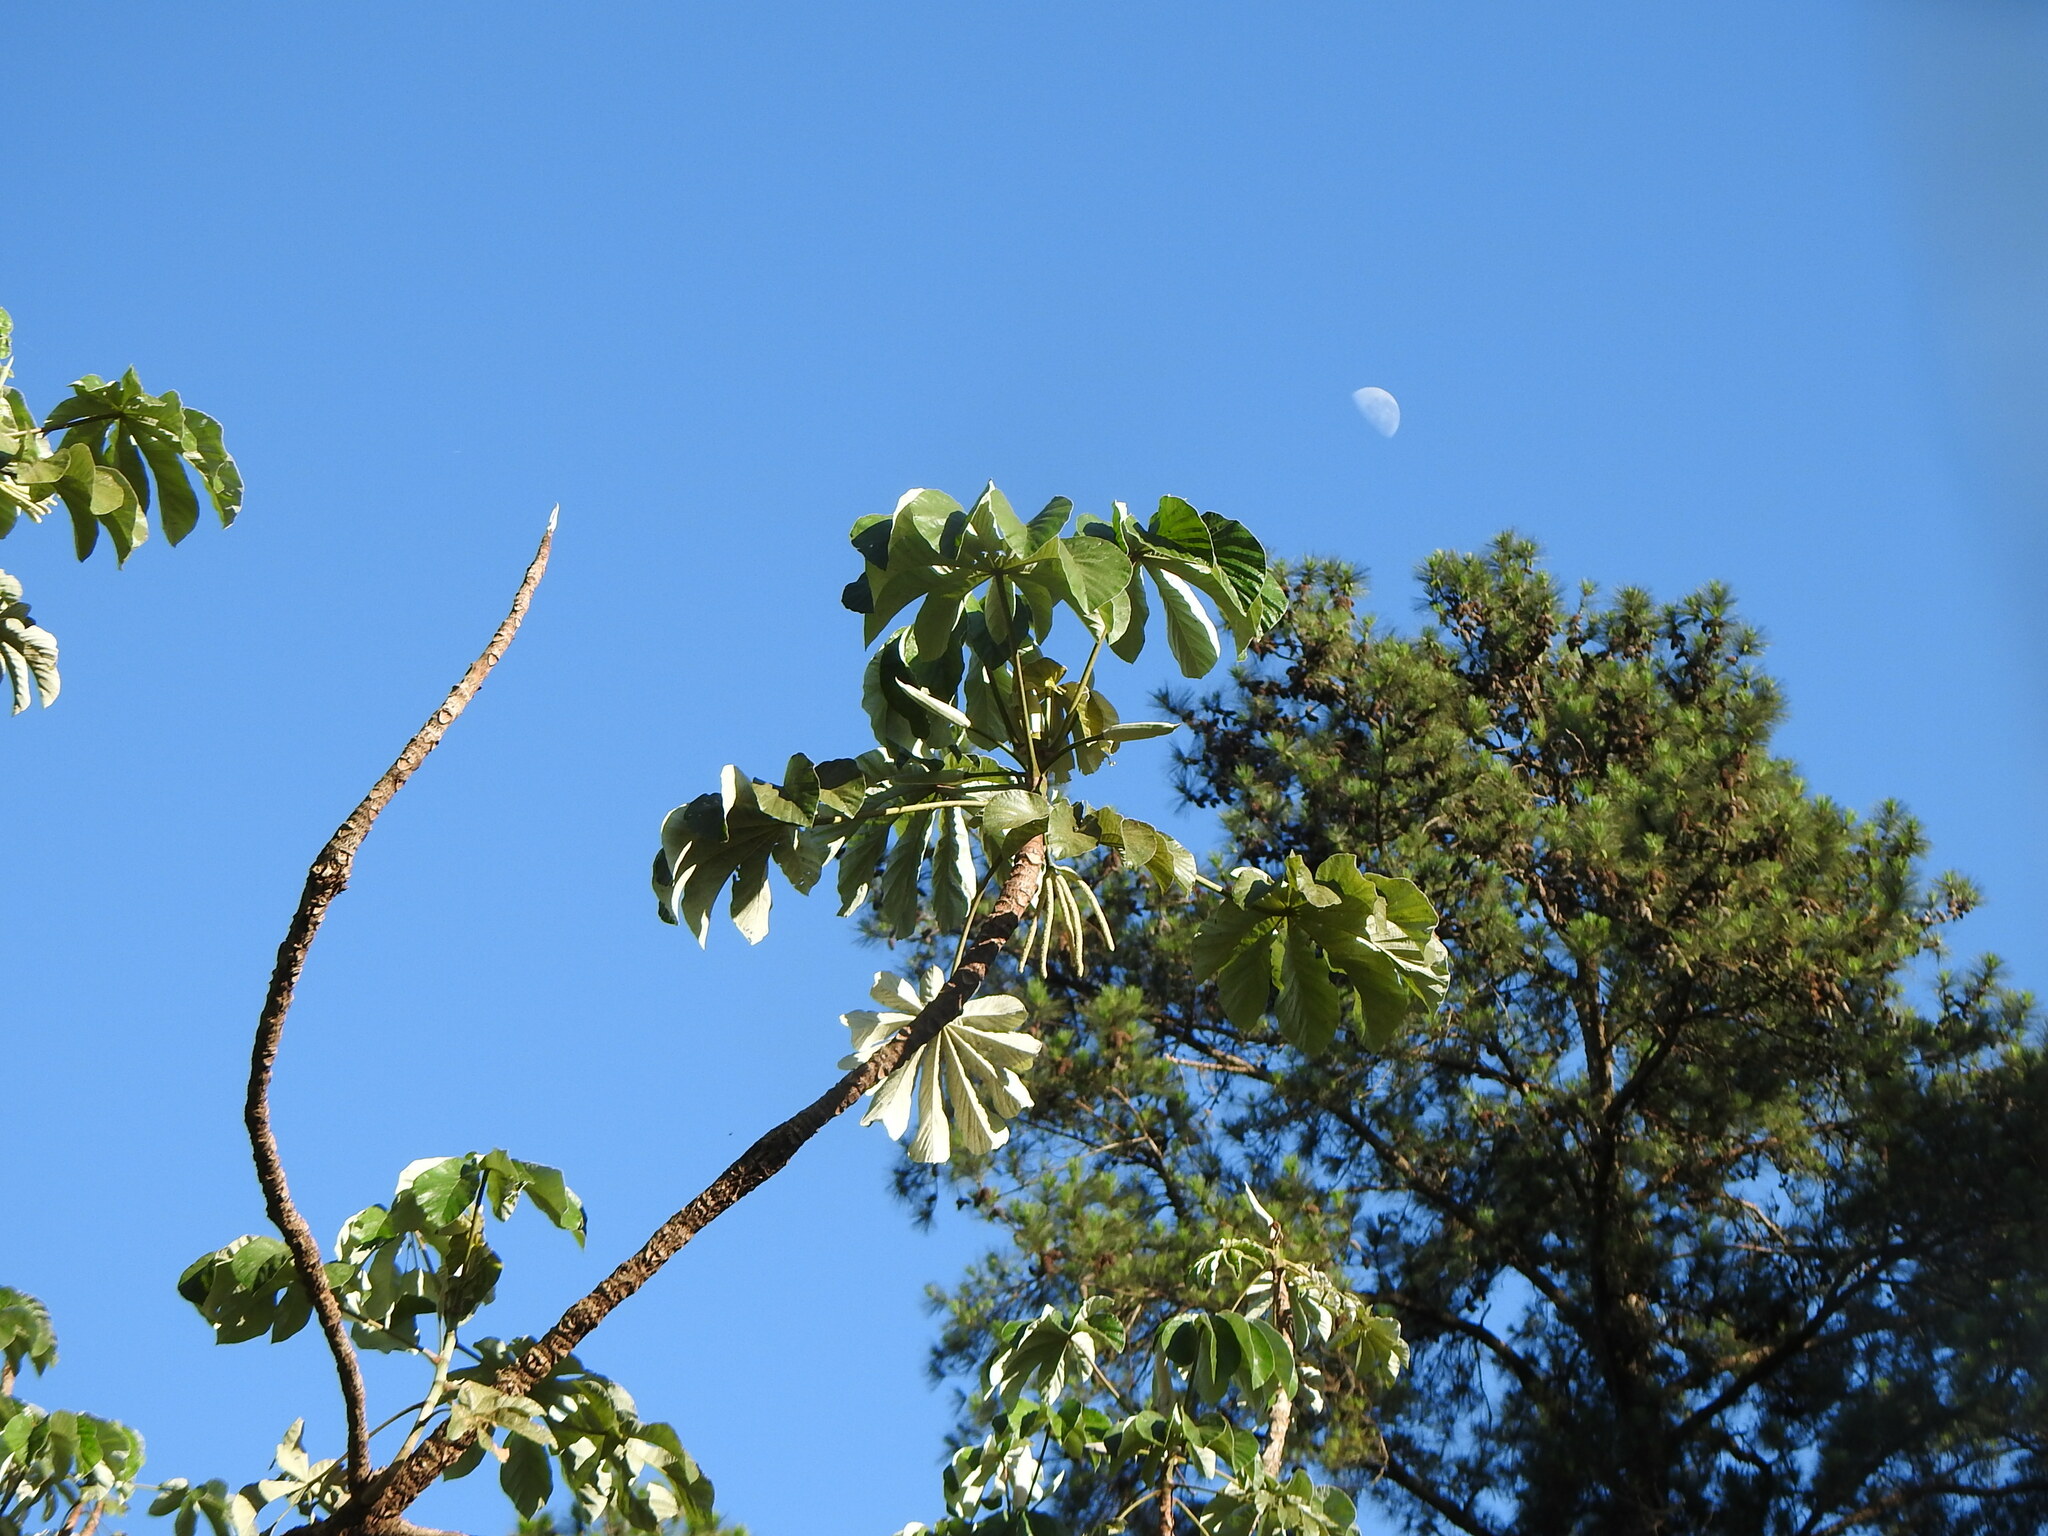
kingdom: Plantae
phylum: Tracheophyta
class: Magnoliopsida
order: Rosales
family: Urticaceae
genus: Cecropia
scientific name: Cecropia pachystachya
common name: Ambay pumpwood
